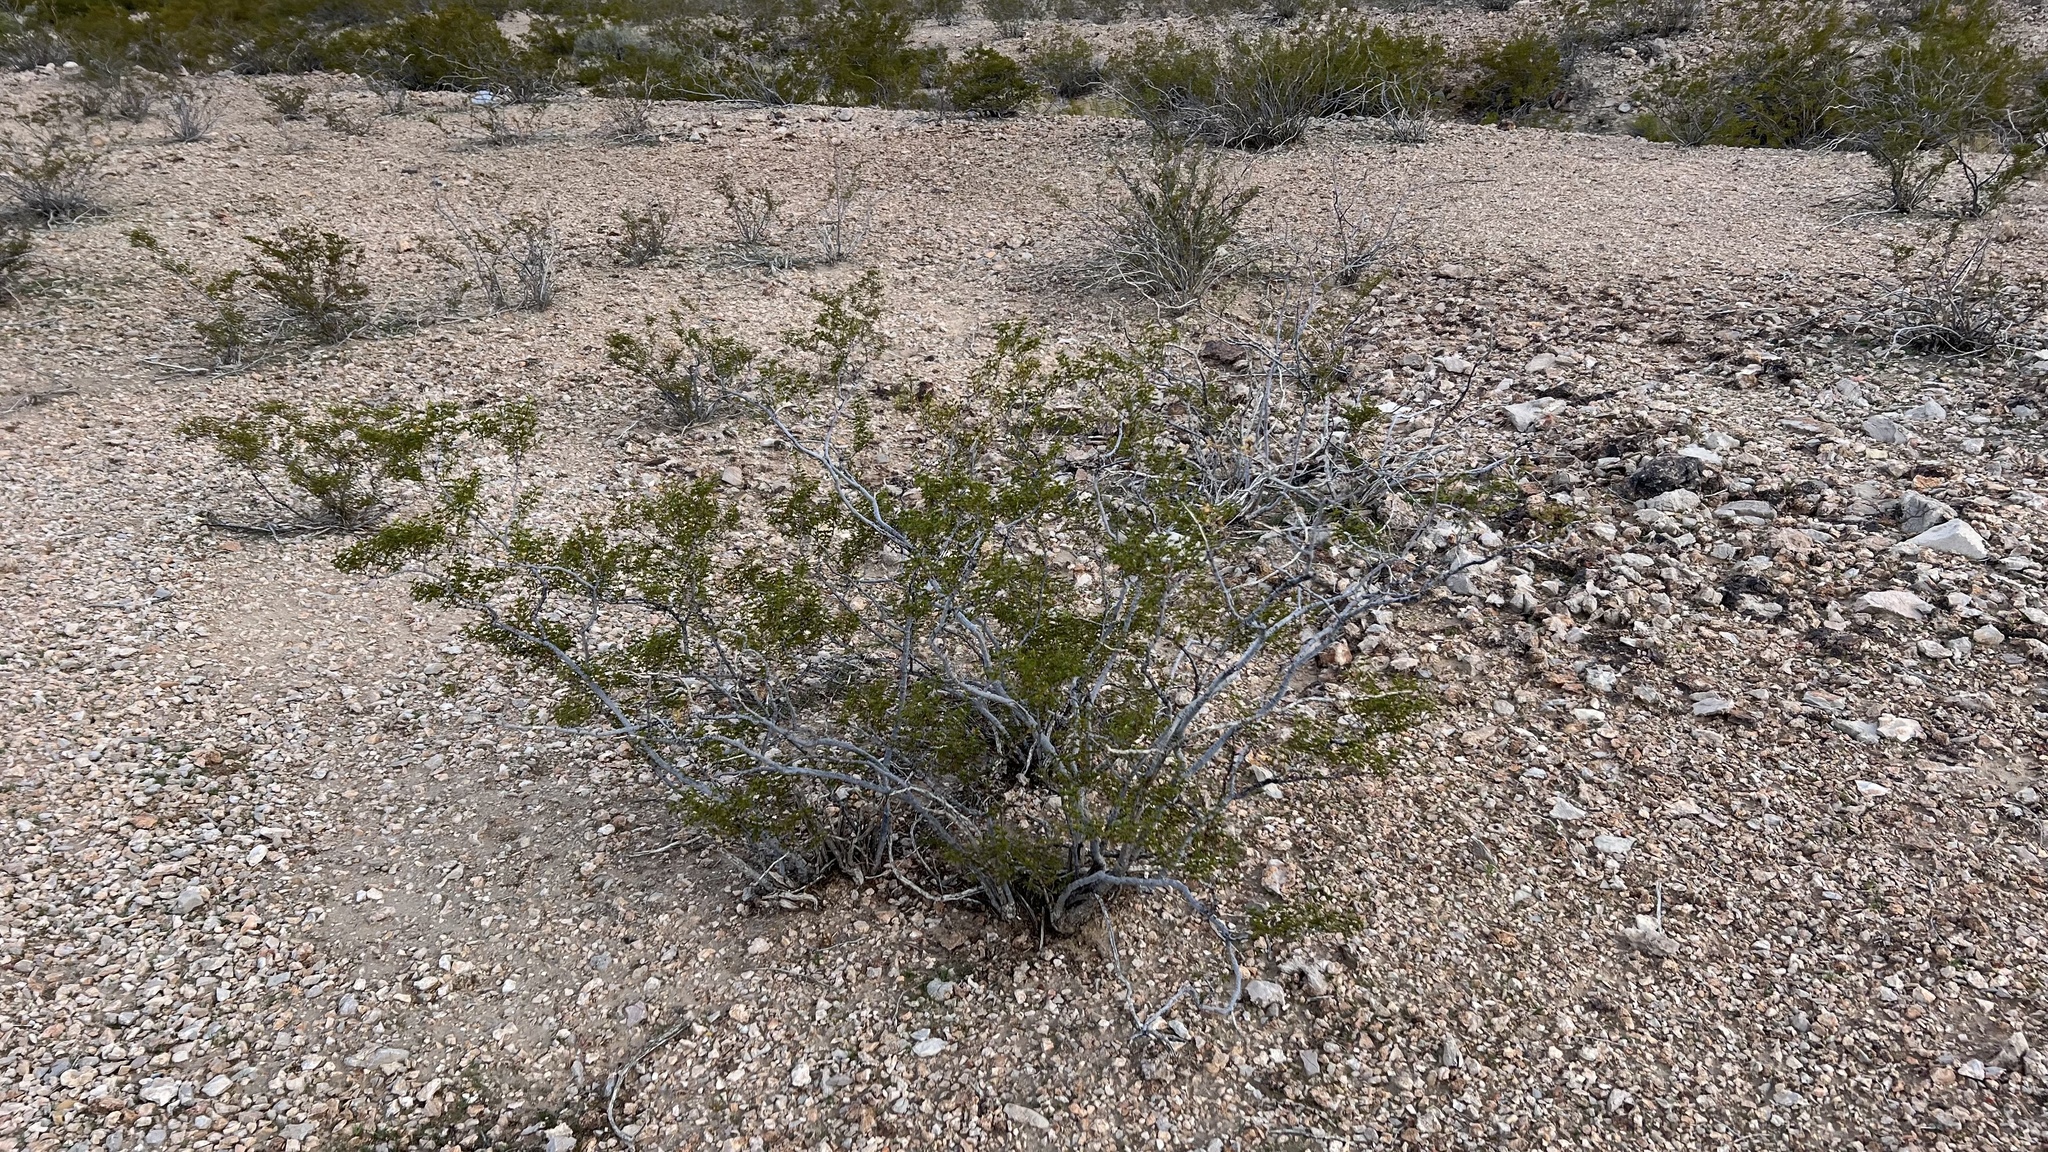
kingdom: Plantae
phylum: Tracheophyta
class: Magnoliopsida
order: Zygophyllales
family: Zygophyllaceae
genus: Larrea
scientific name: Larrea tridentata
